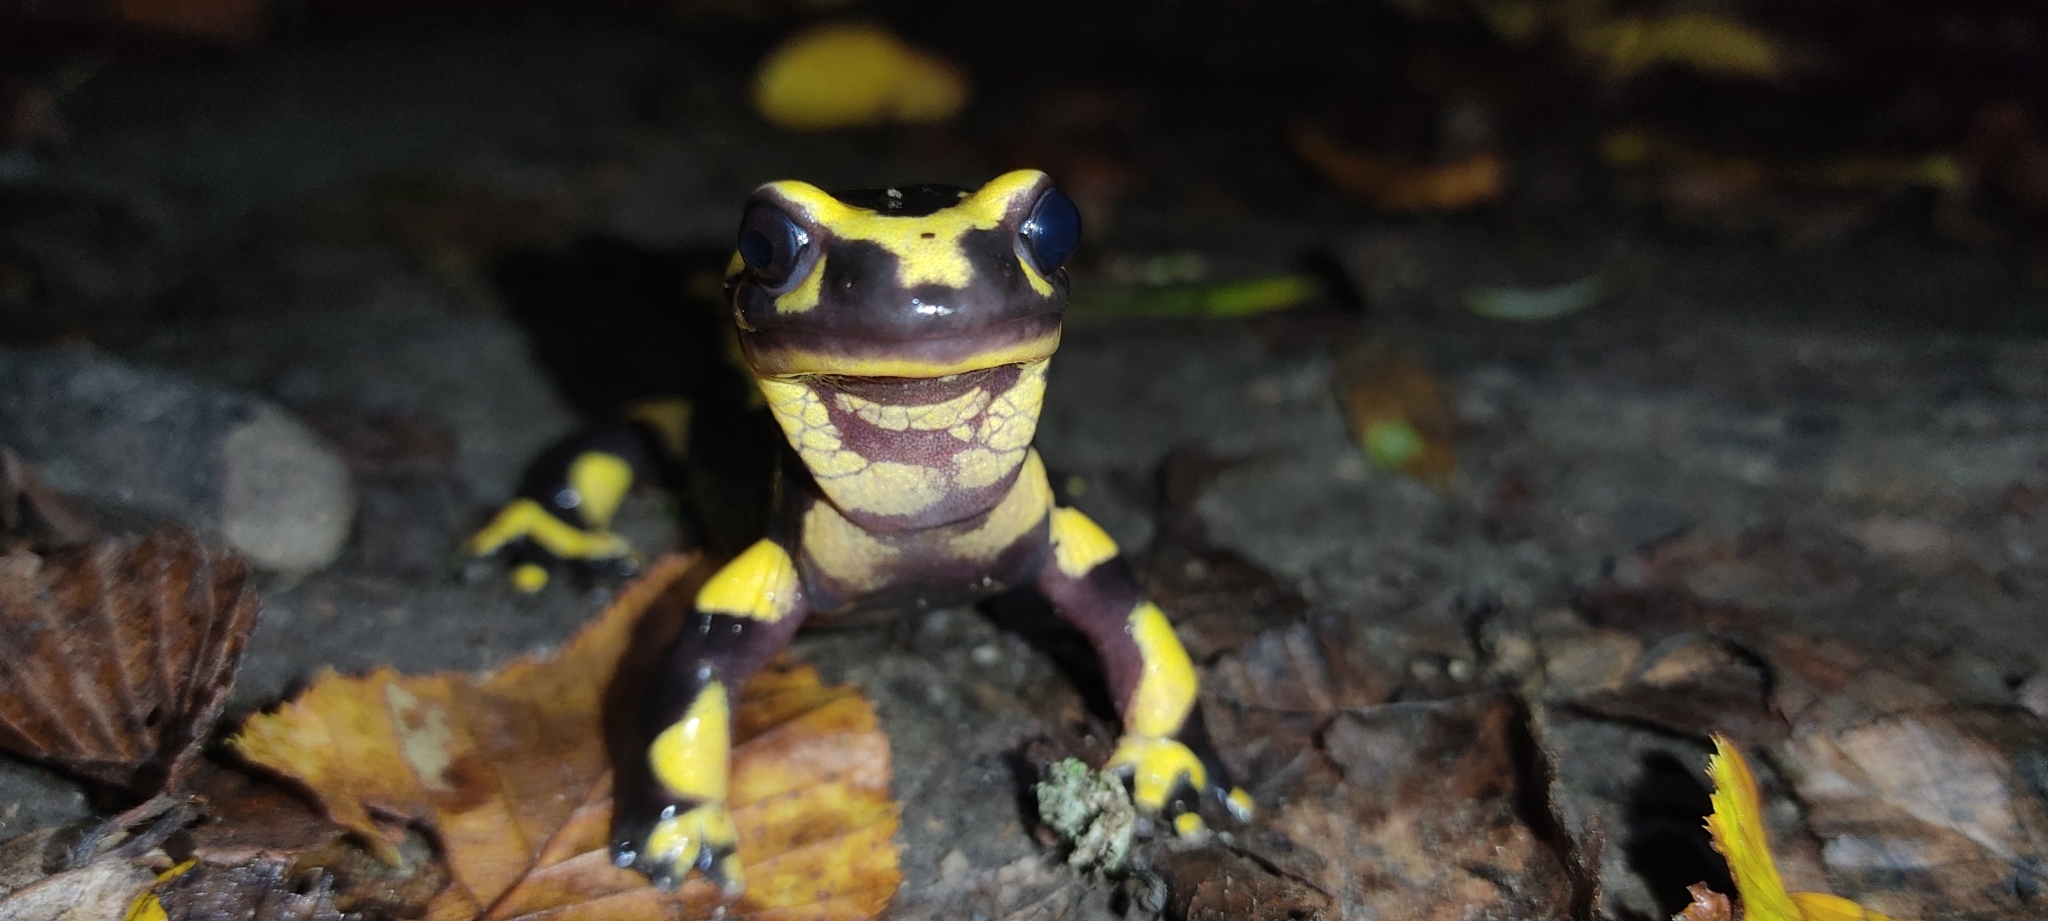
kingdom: Animalia
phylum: Chordata
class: Amphibia
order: Caudata
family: Salamandridae
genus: Salamandra
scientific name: Salamandra salamandra
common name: Fire salamander
